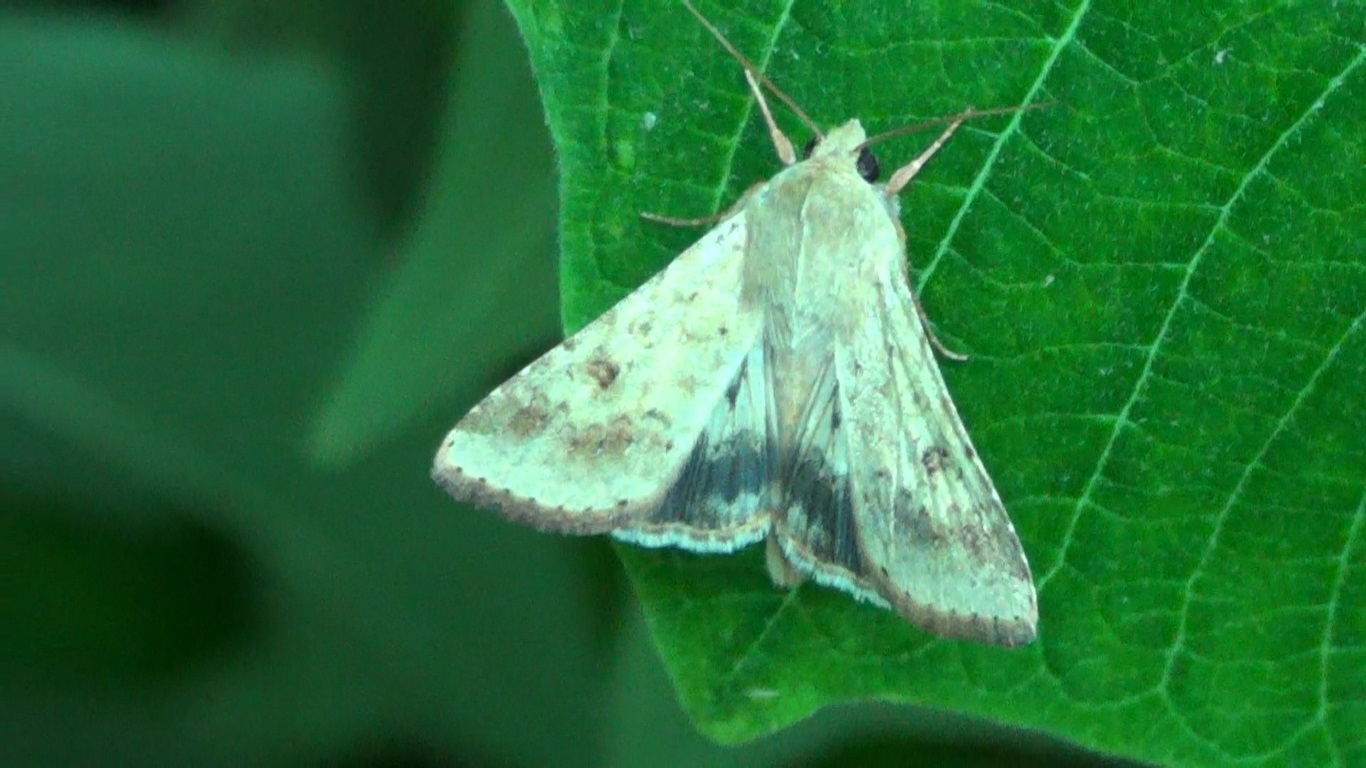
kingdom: Animalia
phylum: Arthropoda
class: Insecta
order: Lepidoptera
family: Noctuidae
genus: Helicoverpa
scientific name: Helicoverpa armigera
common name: Cotton bollworm
